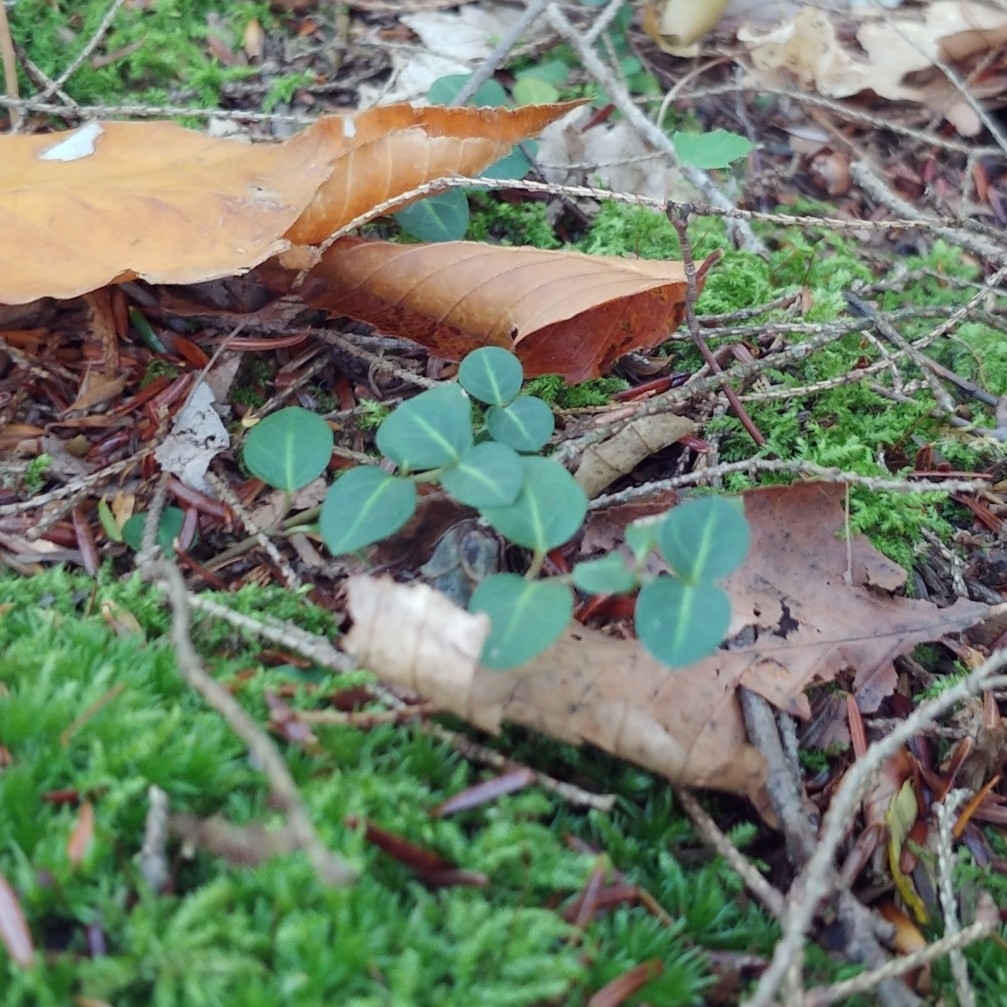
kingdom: Plantae
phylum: Tracheophyta
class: Magnoliopsida
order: Gentianales
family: Rubiaceae
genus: Mitchella
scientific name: Mitchella repens
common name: Partridge-berry
